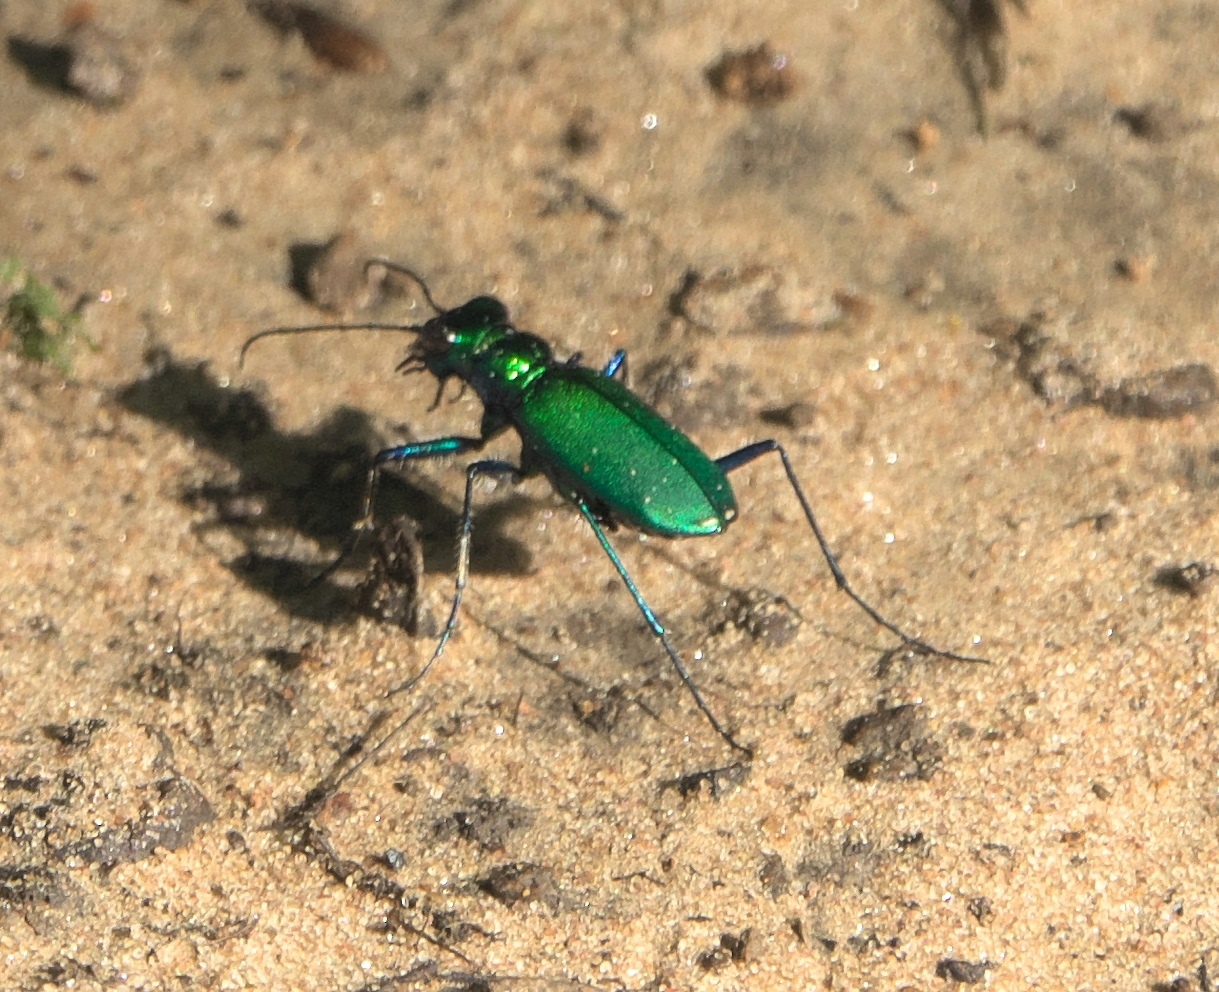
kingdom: Animalia
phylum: Arthropoda
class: Insecta
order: Coleoptera
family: Carabidae
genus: Cicindela
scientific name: Cicindela sexguttata
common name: Six-spotted tiger beetle
